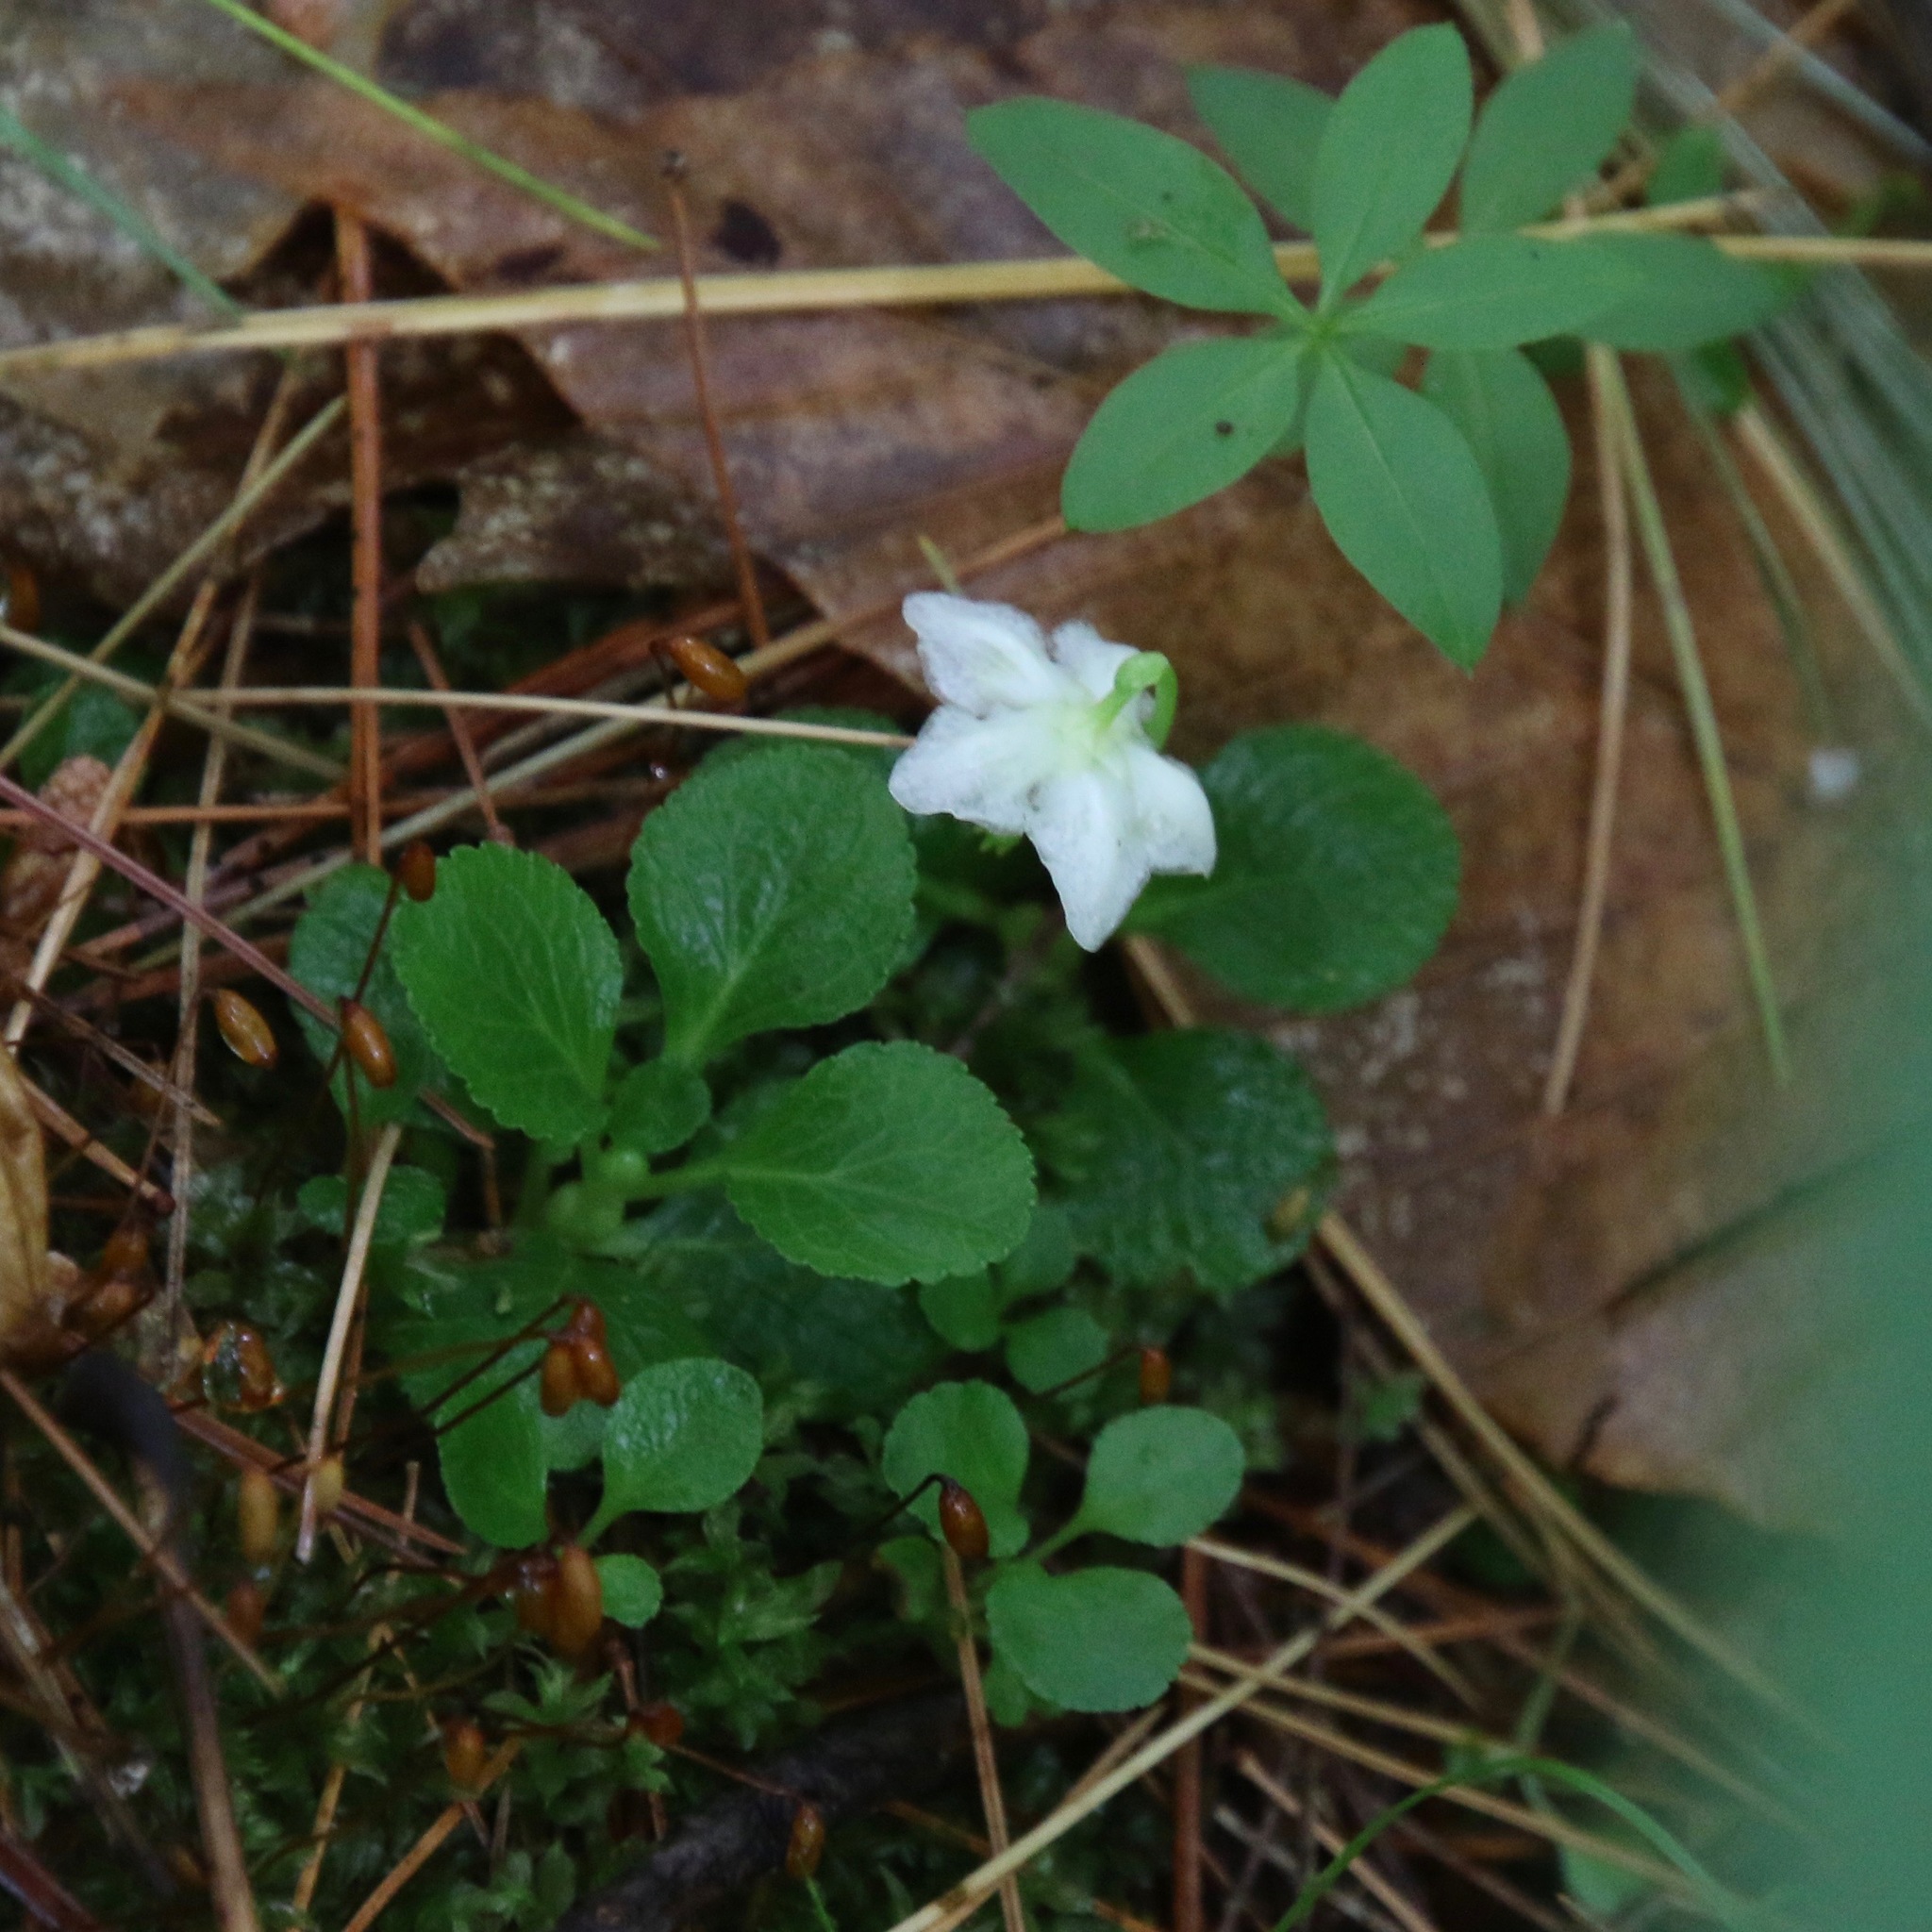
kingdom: Plantae
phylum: Tracheophyta
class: Magnoliopsida
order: Ericales
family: Ericaceae
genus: Moneses
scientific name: Moneses uniflora
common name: One-flowered wintergreen
